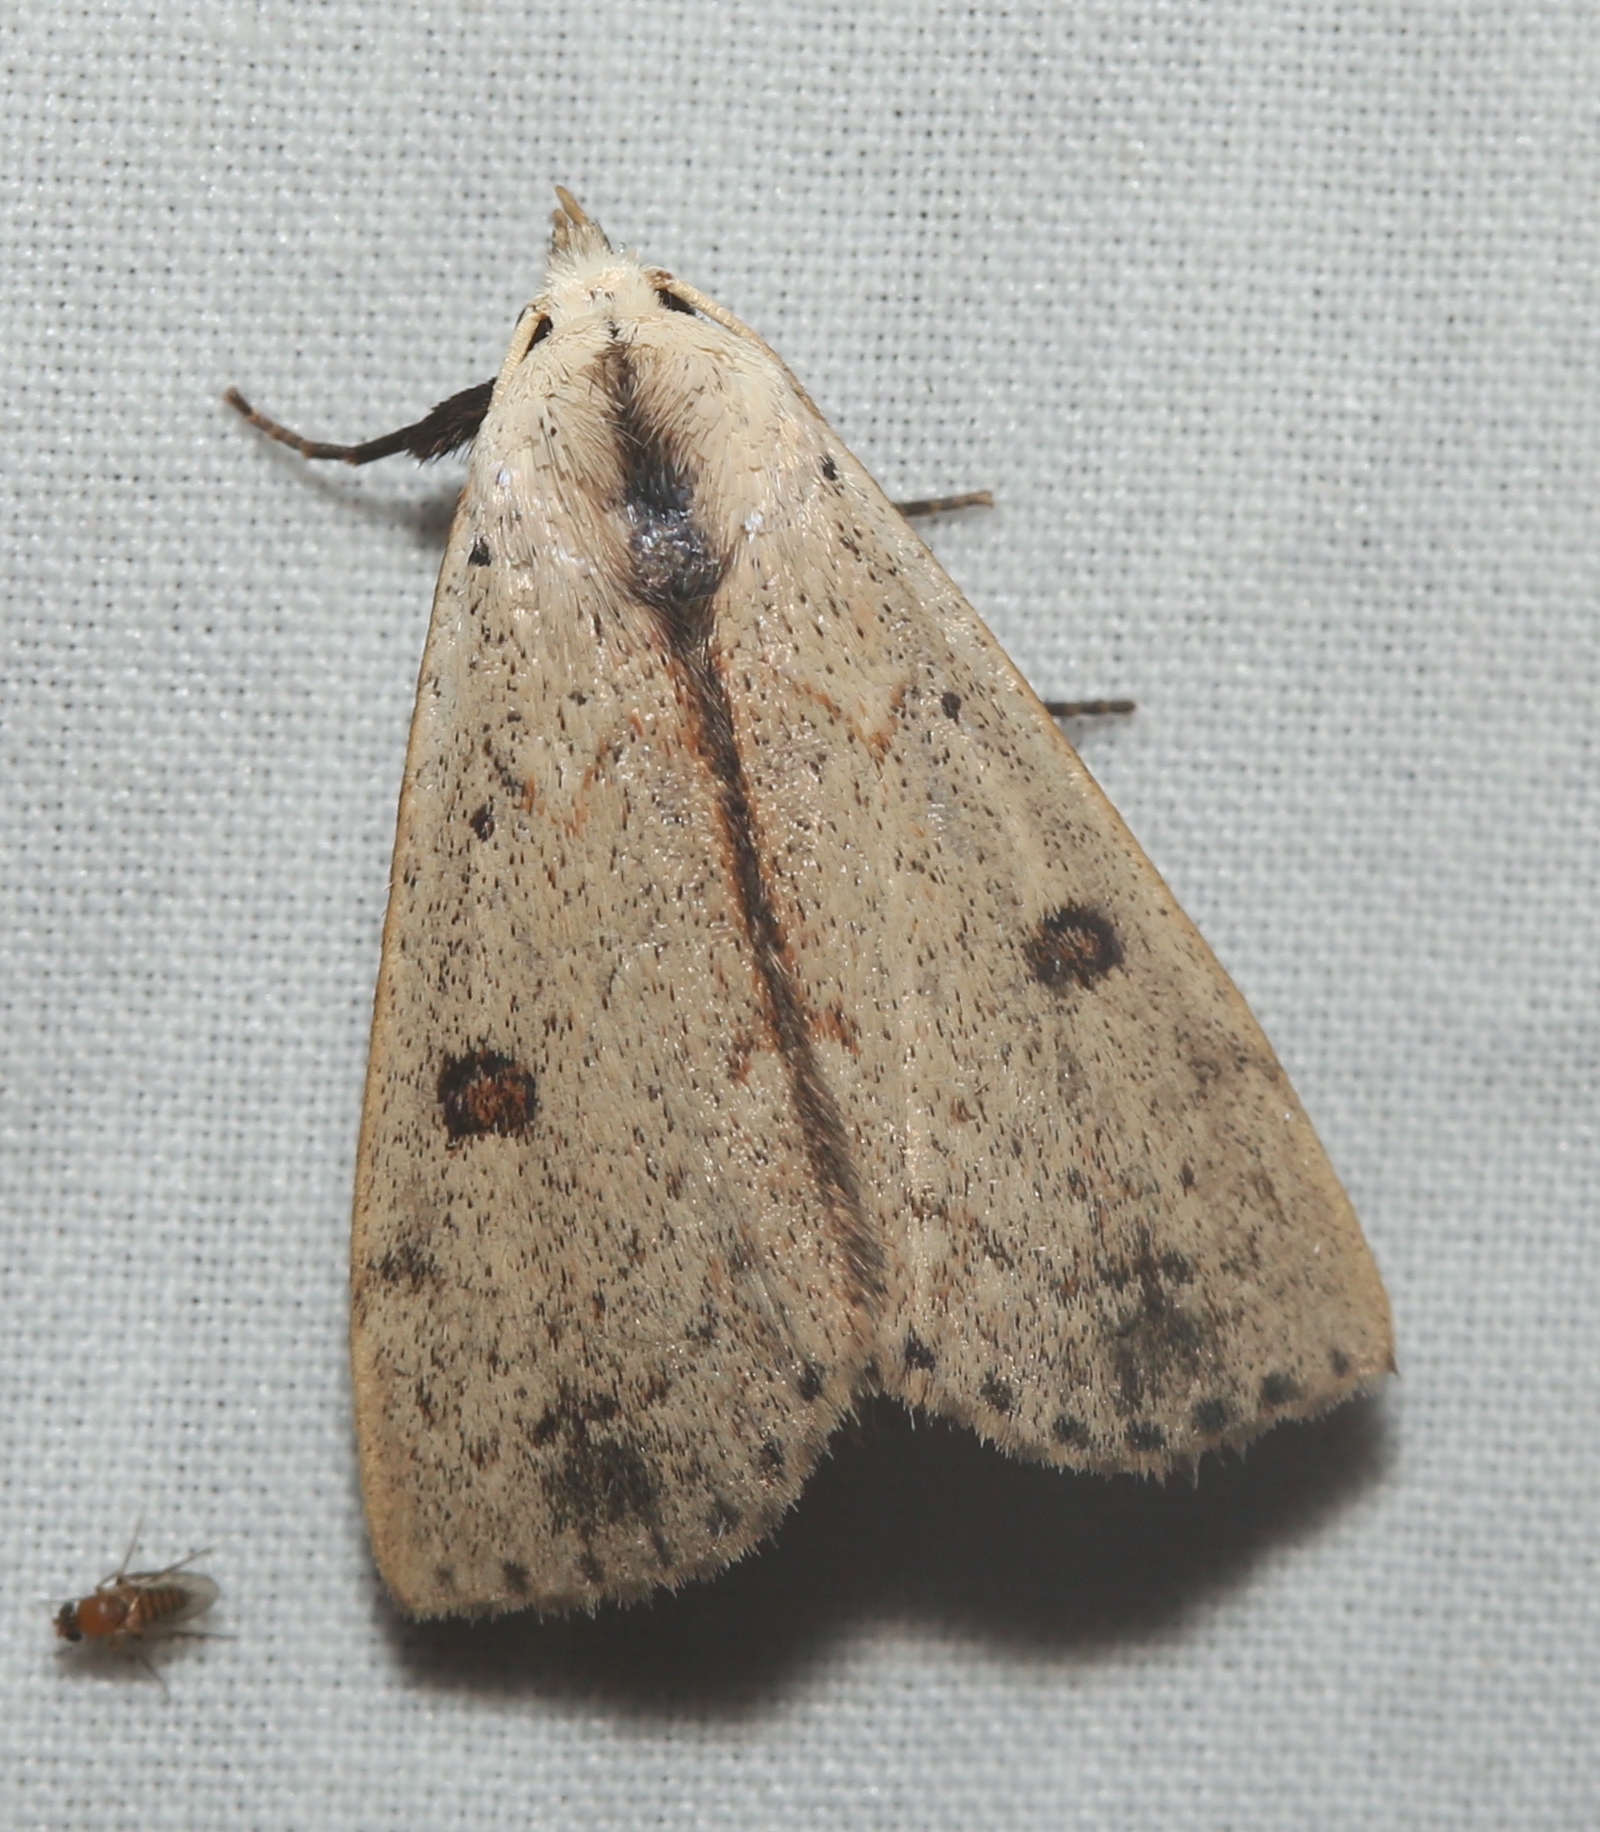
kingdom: Animalia
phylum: Arthropoda
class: Insecta
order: Lepidoptera
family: Erebidae
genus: Scolecocampa
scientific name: Scolecocampa liburna
